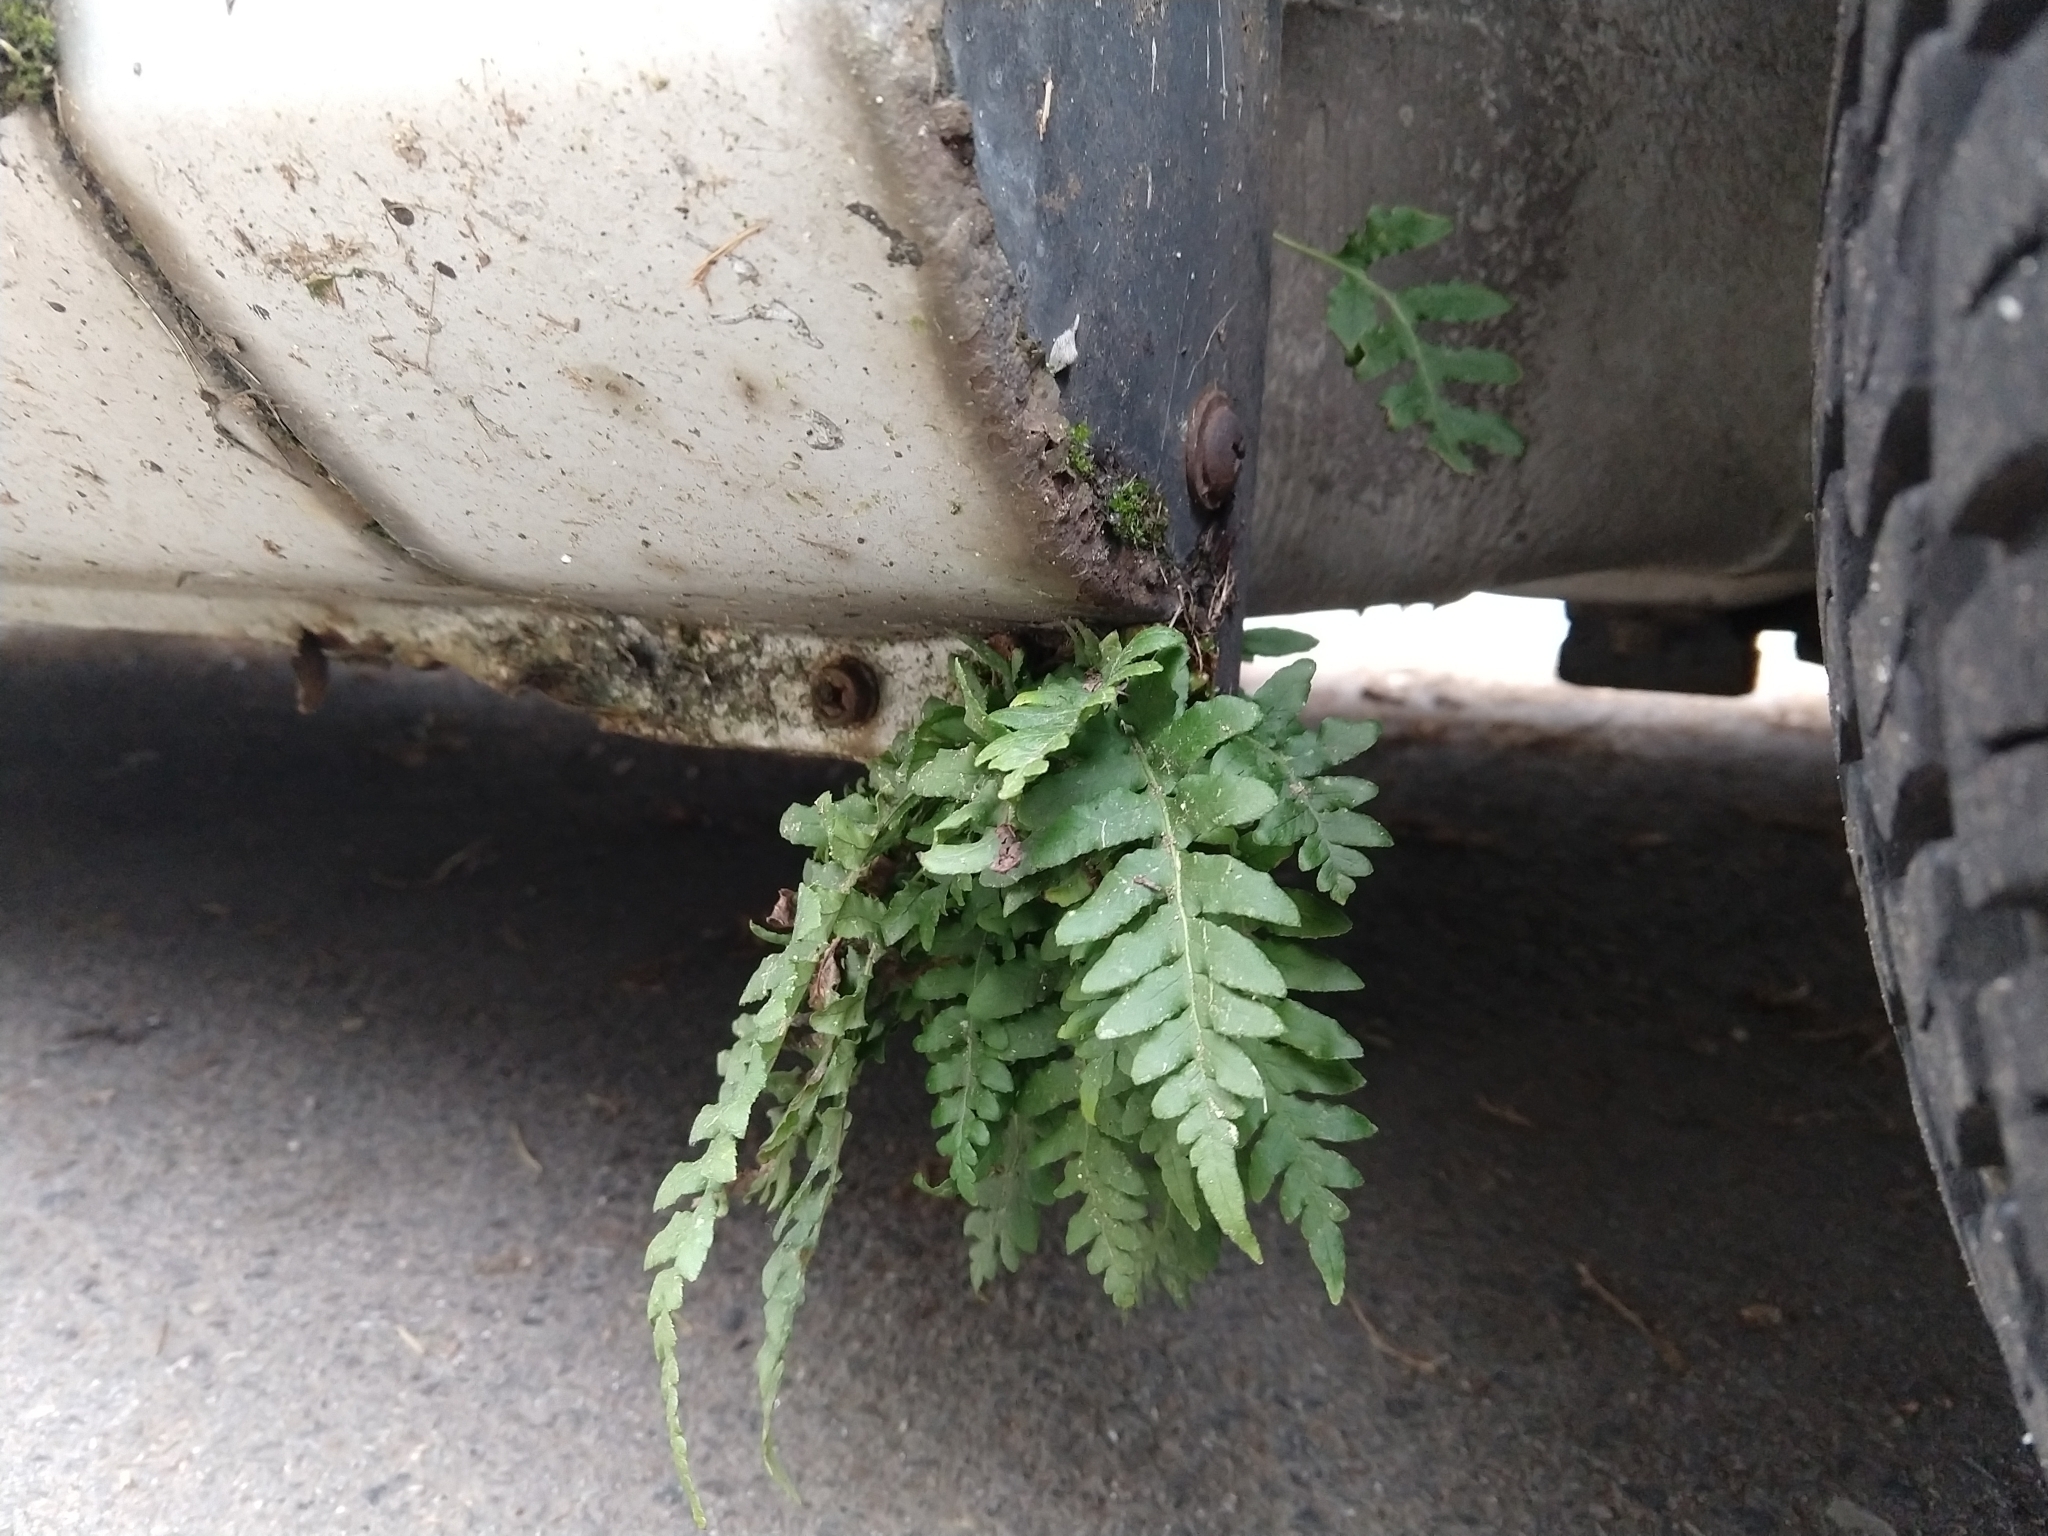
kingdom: Plantae
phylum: Tracheophyta
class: Polypodiopsida
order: Polypodiales
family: Polypodiaceae
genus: Polypodium
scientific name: Polypodium glycyrrhiza
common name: Licorice fern
